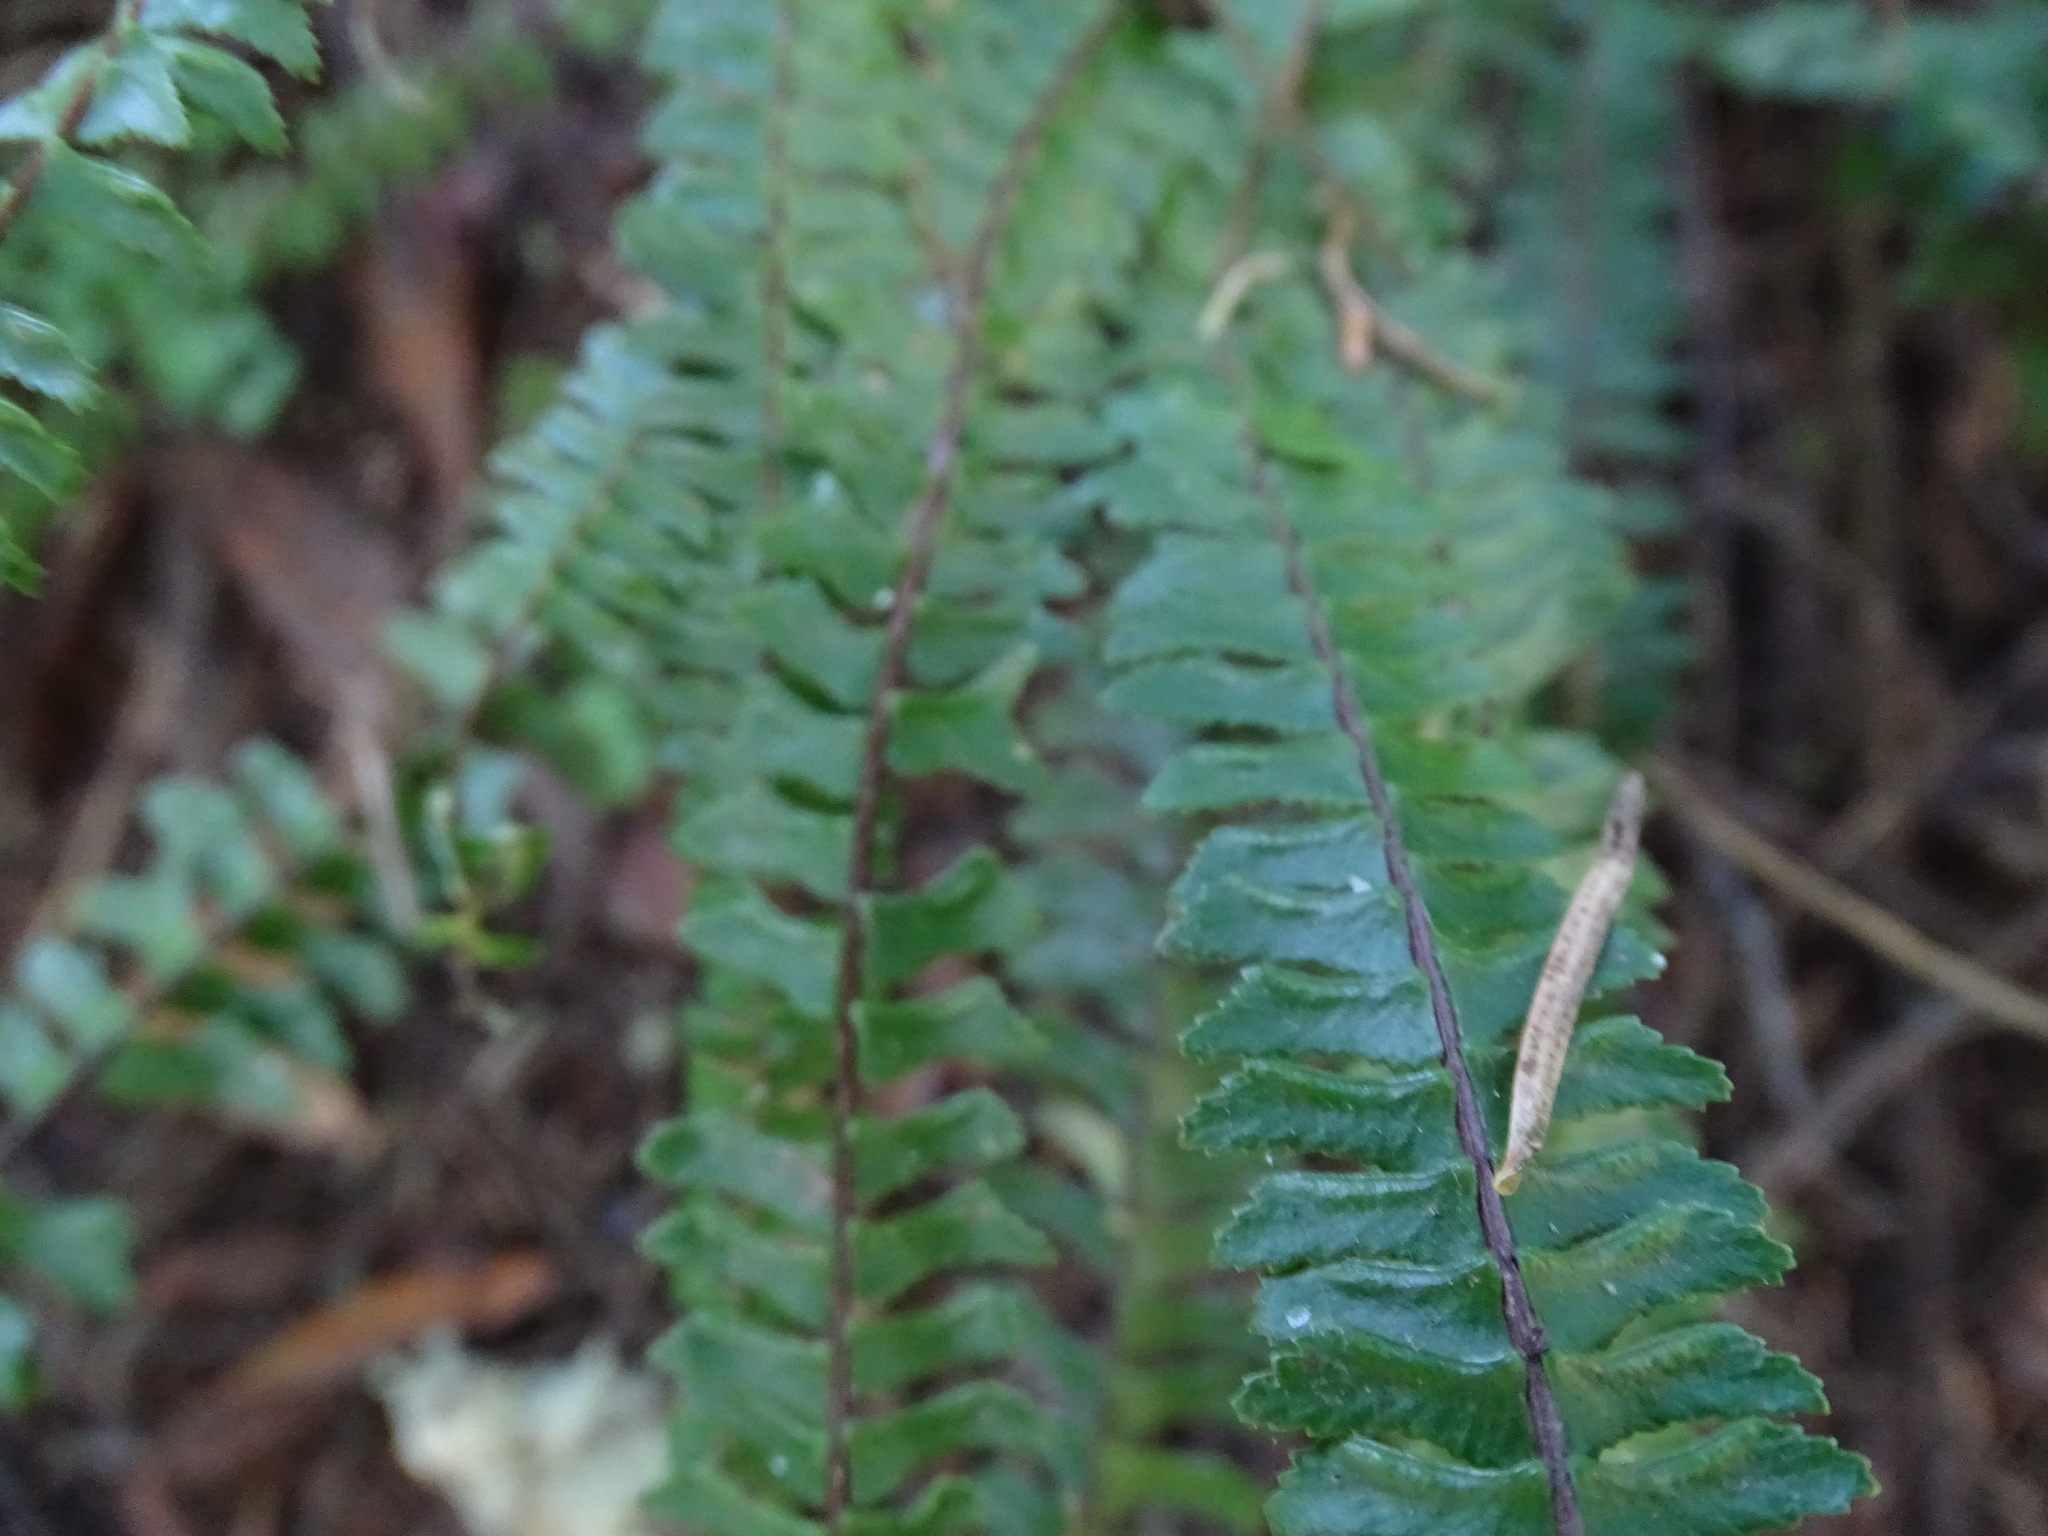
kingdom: Plantae
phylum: Tracheophyta
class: Polypodiopsida
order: Polypodiales
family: Aspleniaceae
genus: Asplenium
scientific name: Asplenium monanthes
